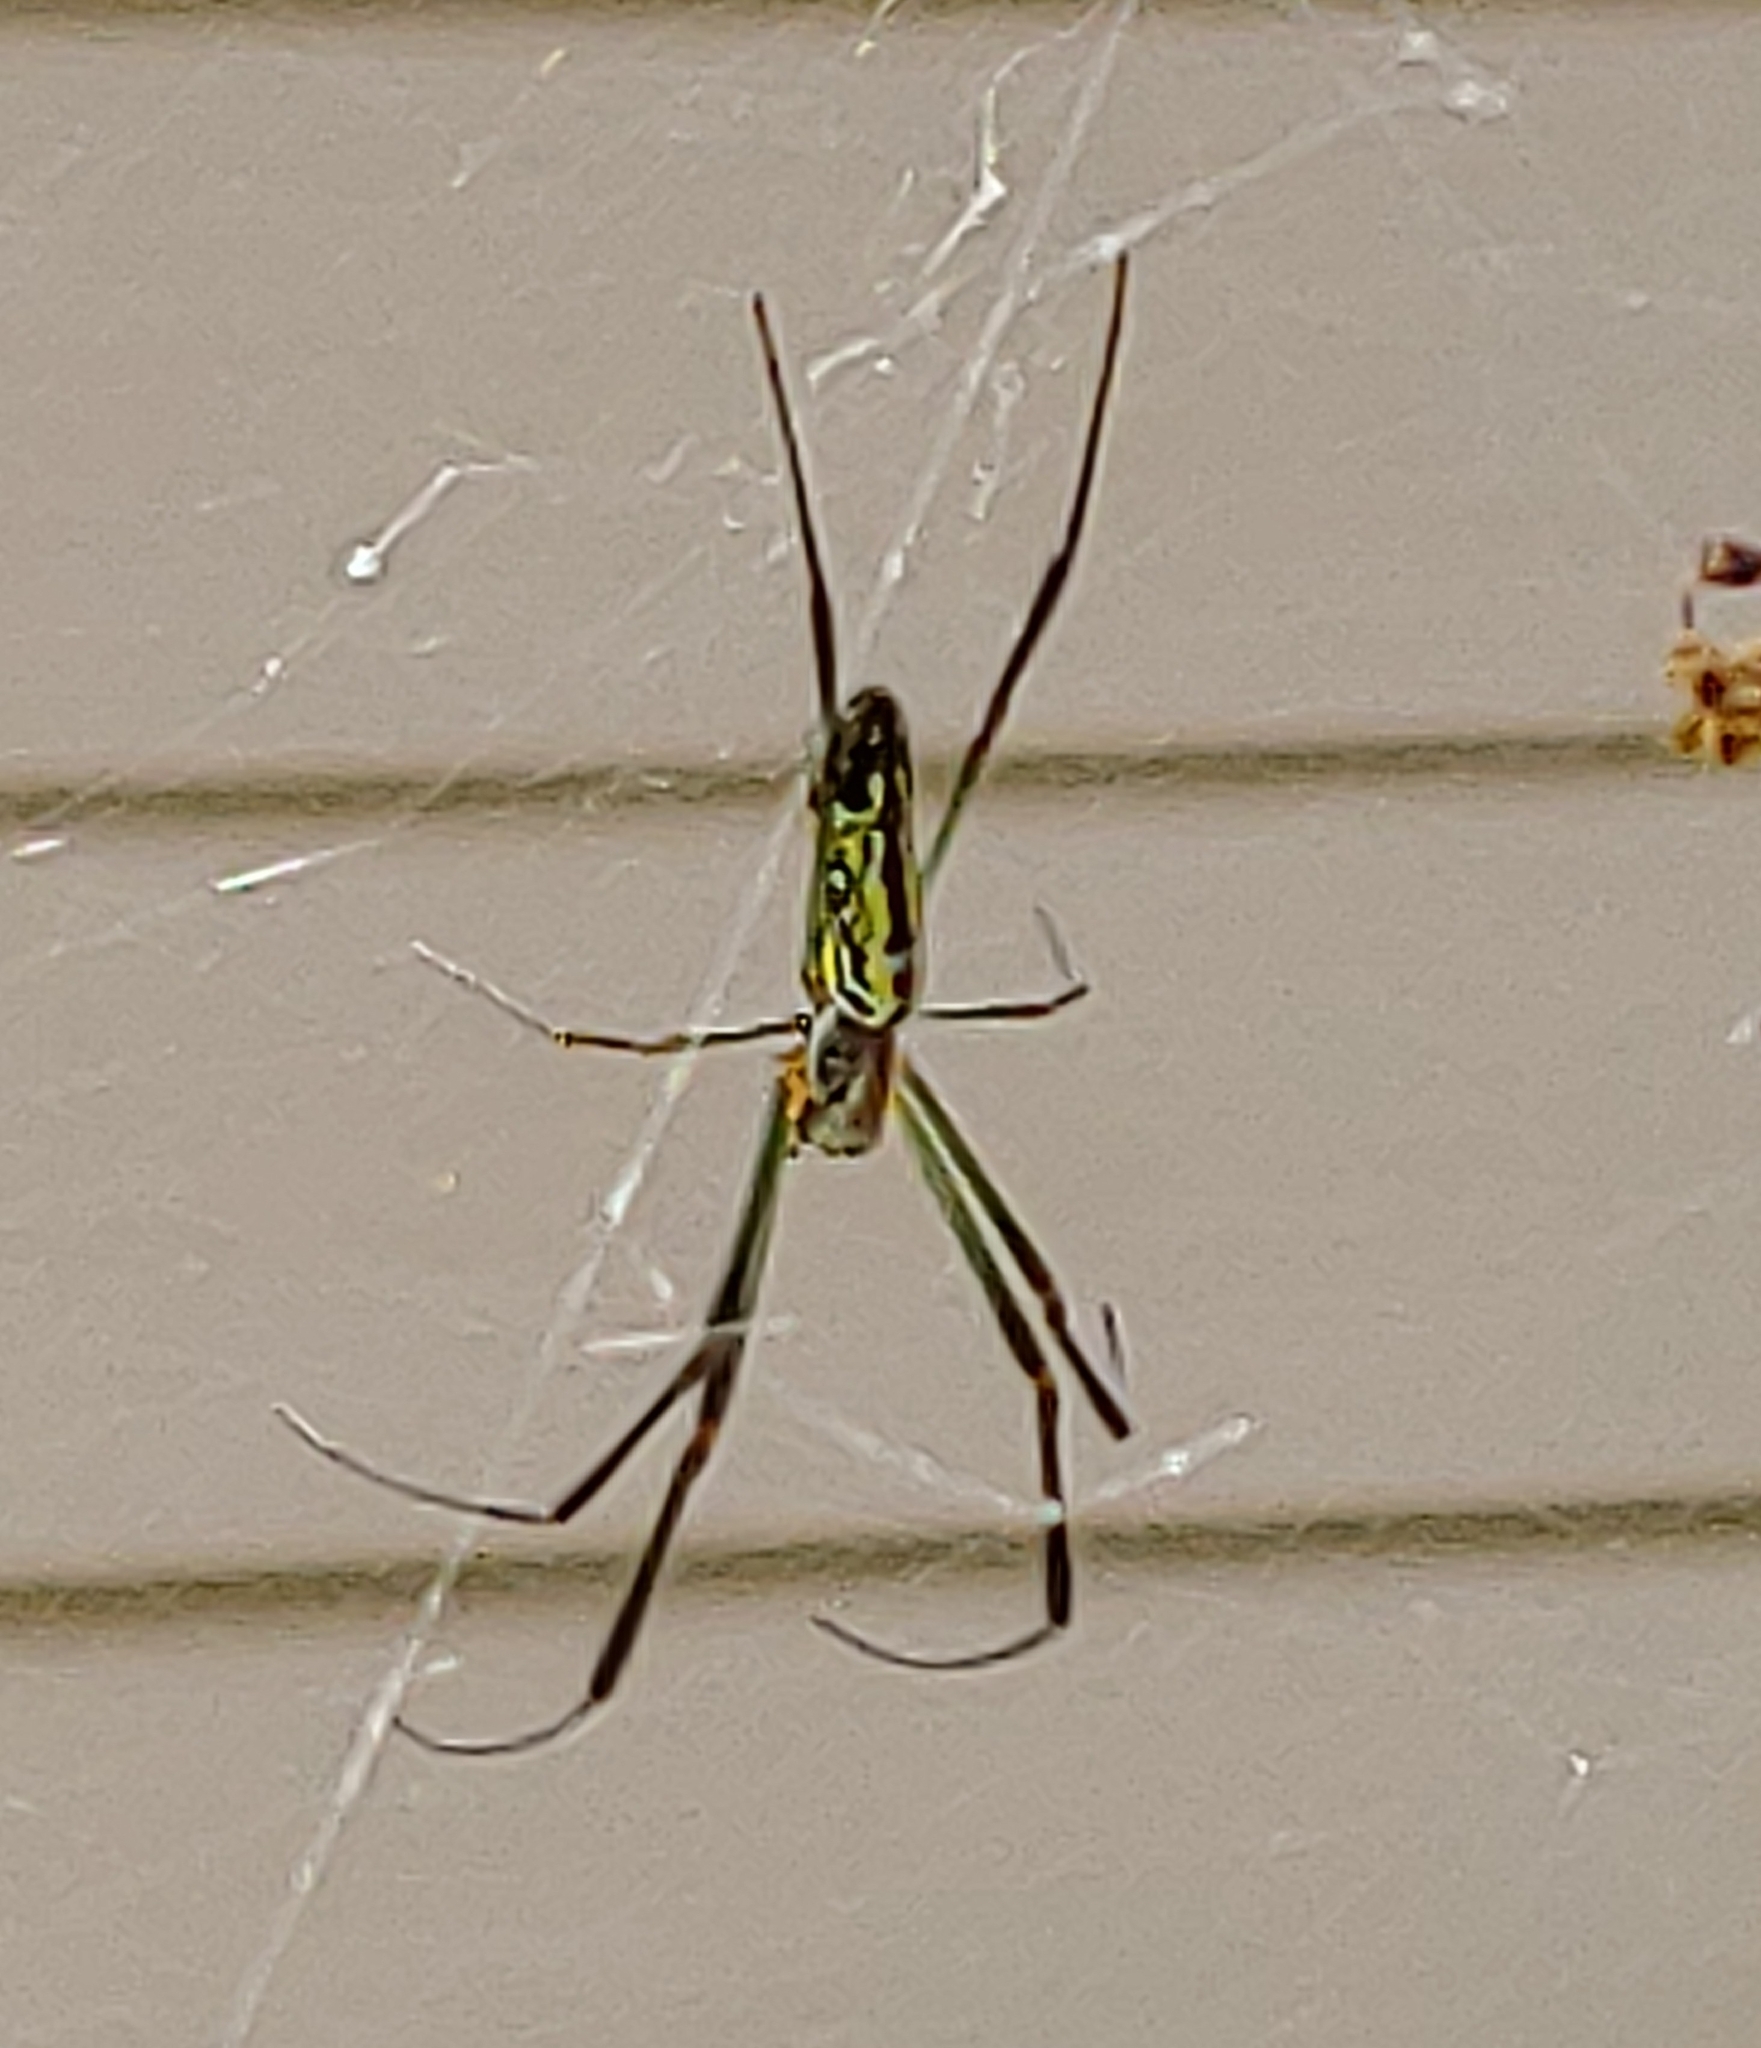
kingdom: Animalia
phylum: Arthropoda
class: Arachnida
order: Araneae
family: Araneidae
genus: Trichonephila
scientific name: Trichonephila clavata
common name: Jorō spider
